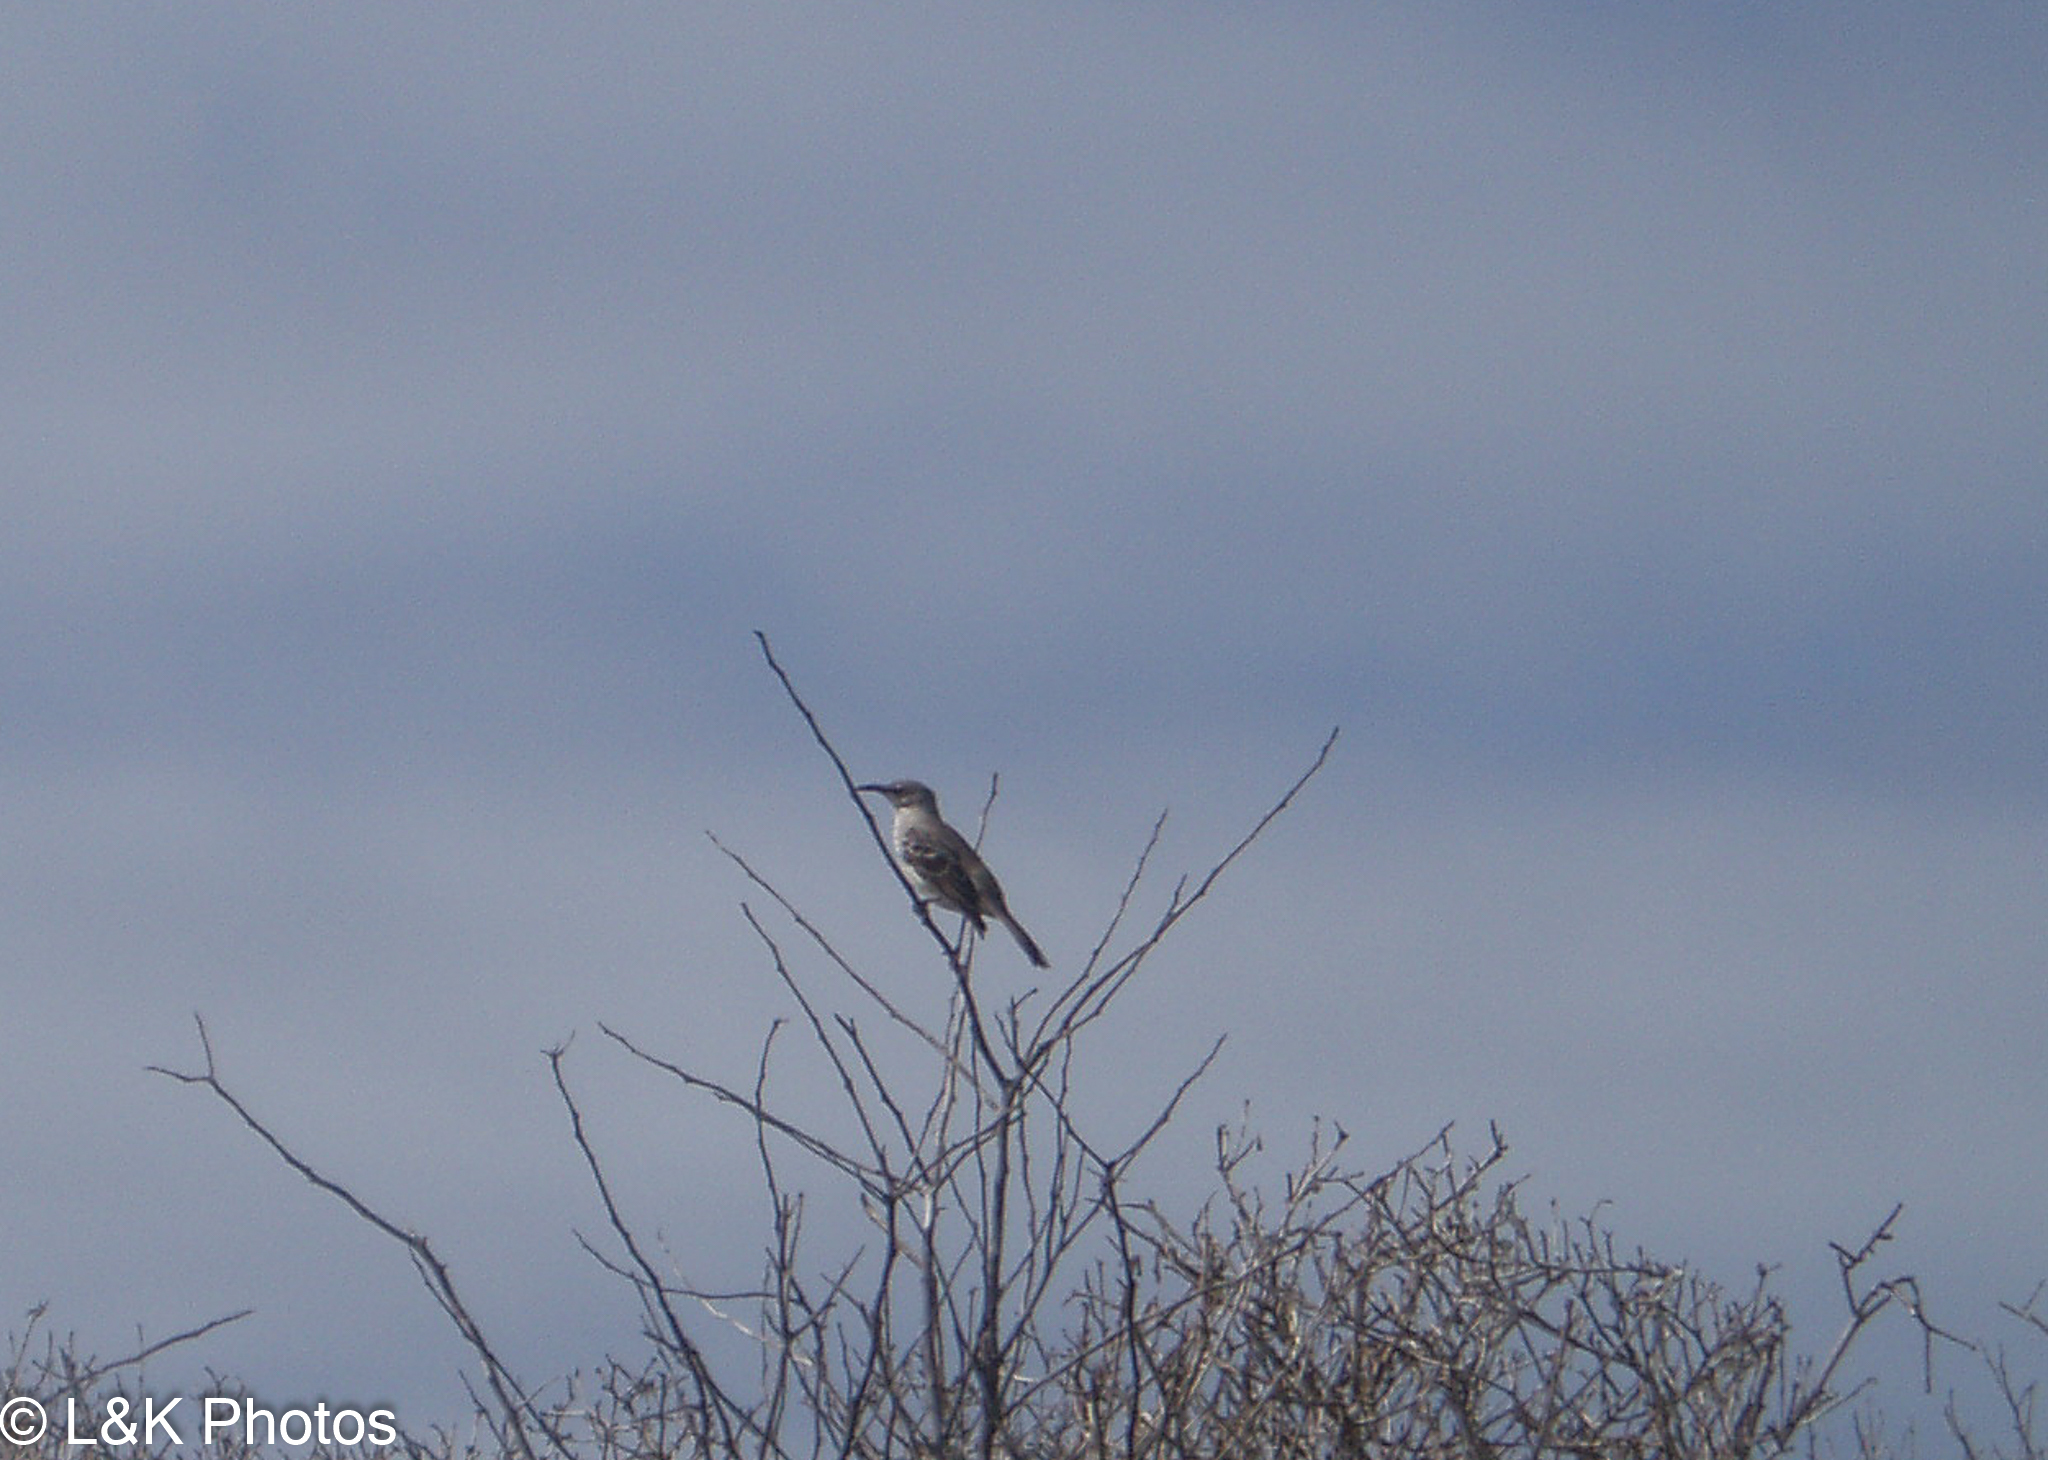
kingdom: Animalia
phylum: Chordata
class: Aves
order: Passeriformes
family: Mimidae
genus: Mimus
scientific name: Mimus macdonaldi
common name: Espanola mockingbird
